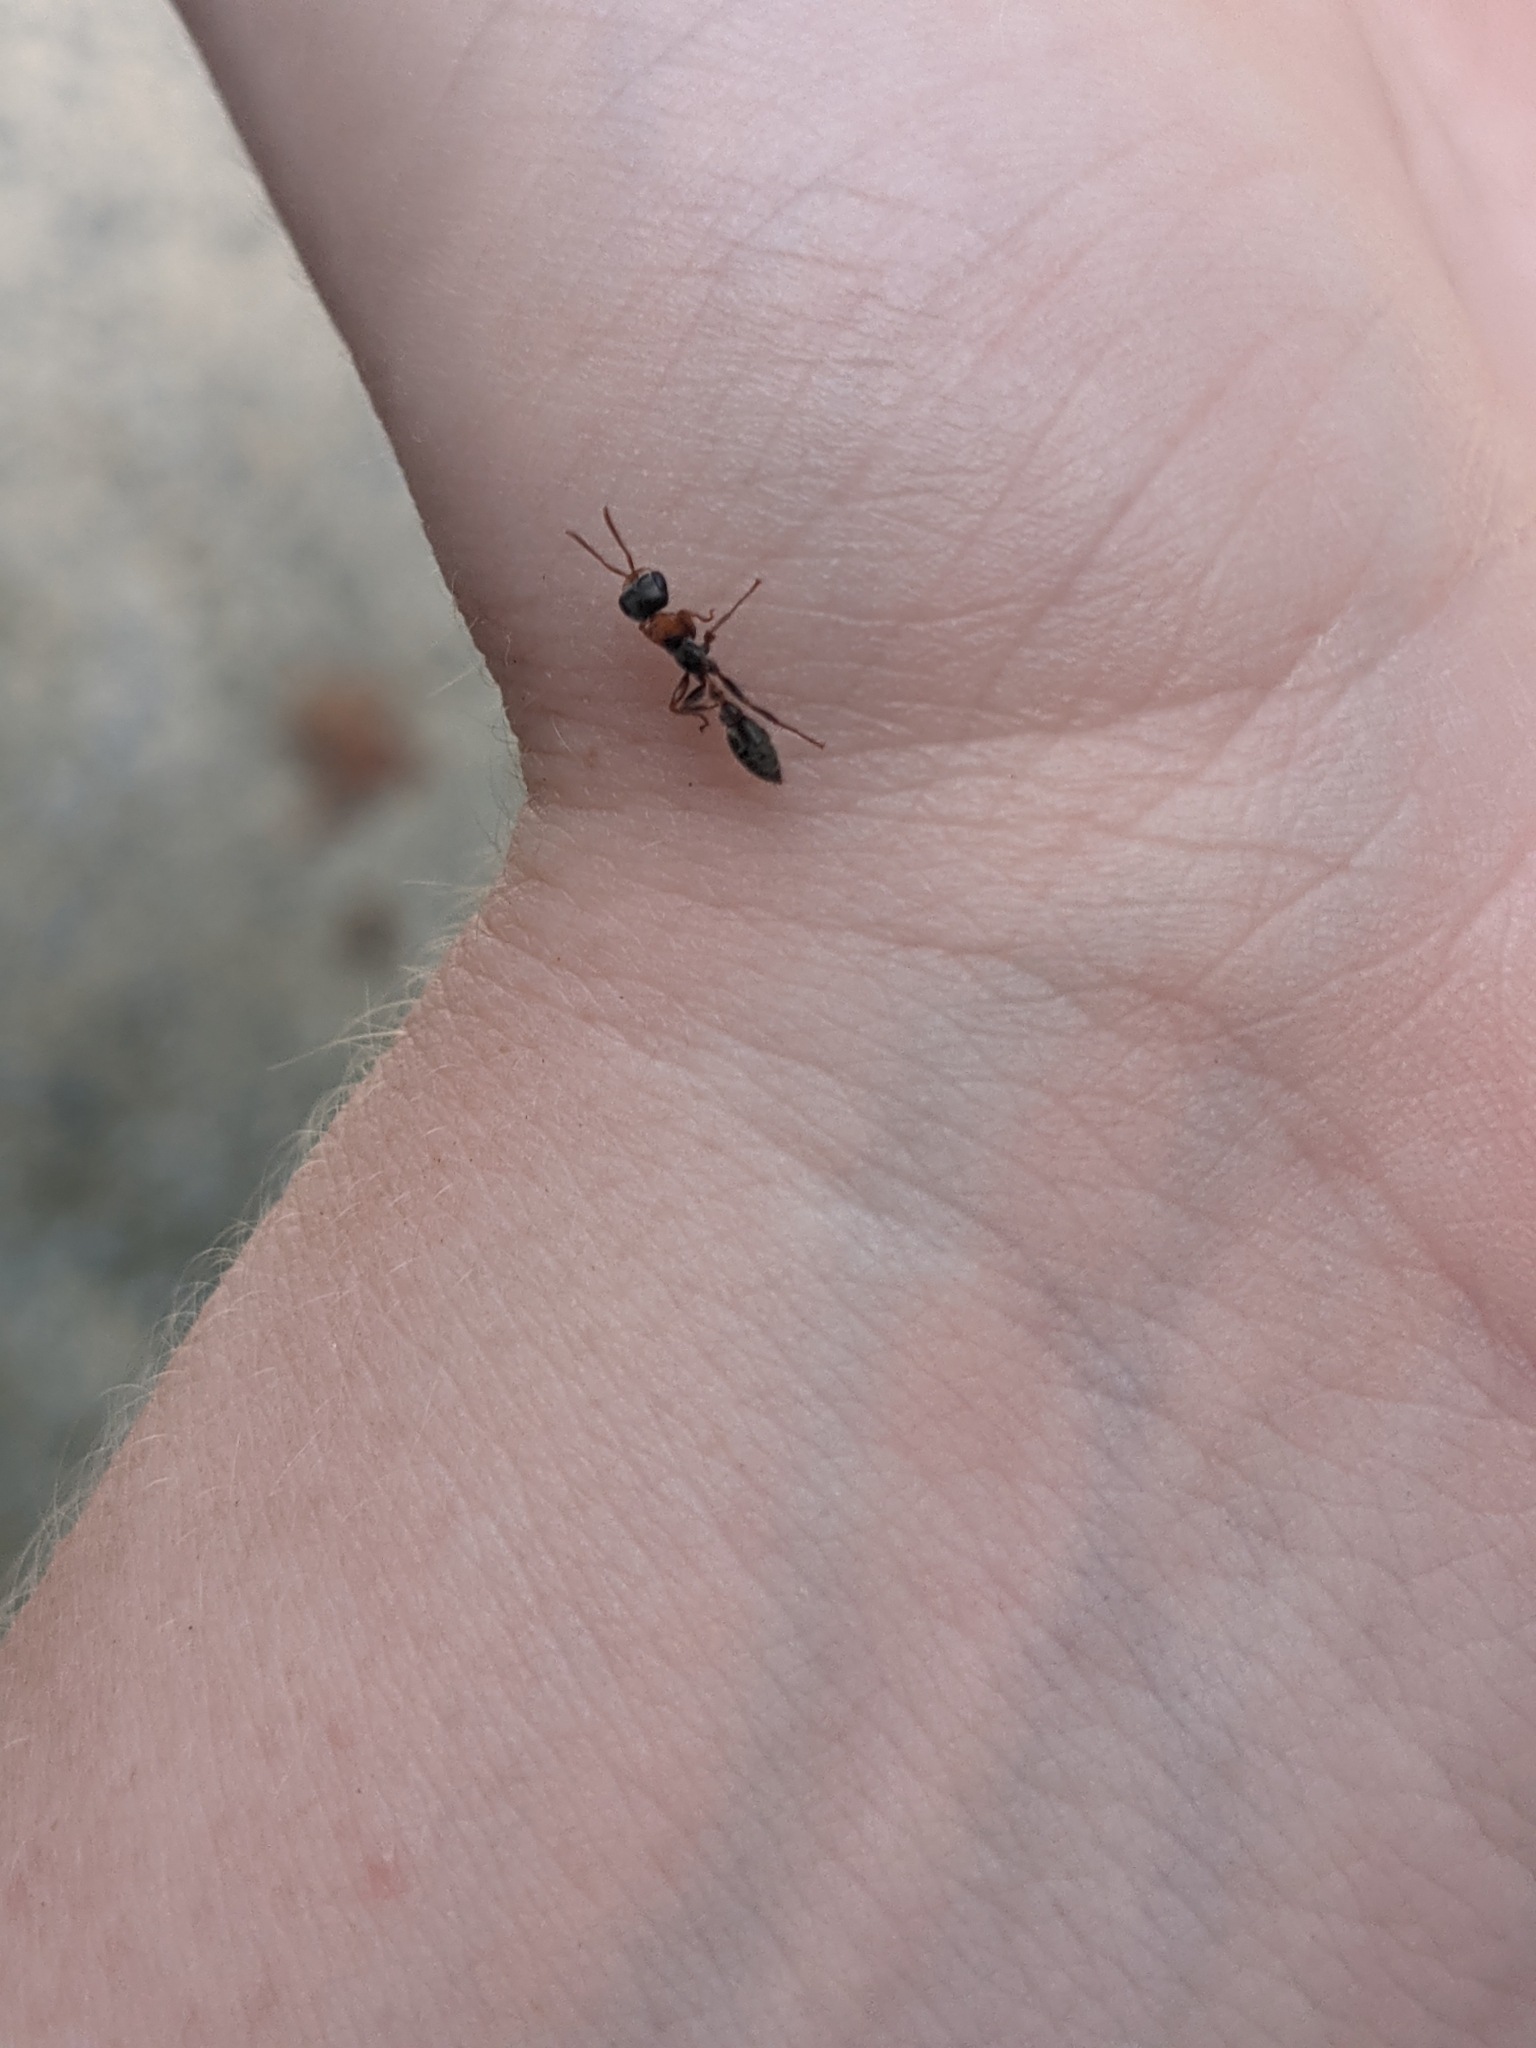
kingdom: Animalia
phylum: Arthropoda
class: Insecta
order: Hymenoptera
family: Formicidae
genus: Pseudomyrmex
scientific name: Pseudomyrmex gracilis
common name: Graceful twig ant
